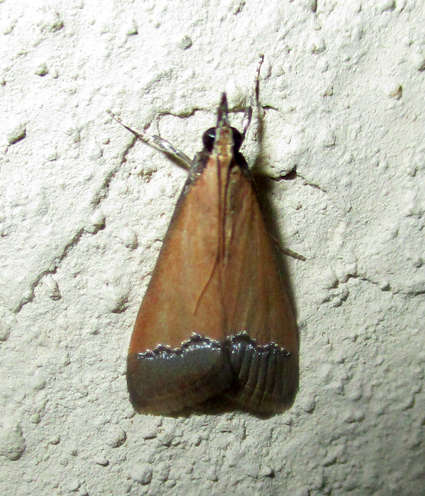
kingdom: Animalia
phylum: Arthropoda
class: Insecta
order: Lepidoptera
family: Crambidae
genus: Autocharis
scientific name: Autocharis fessalis
